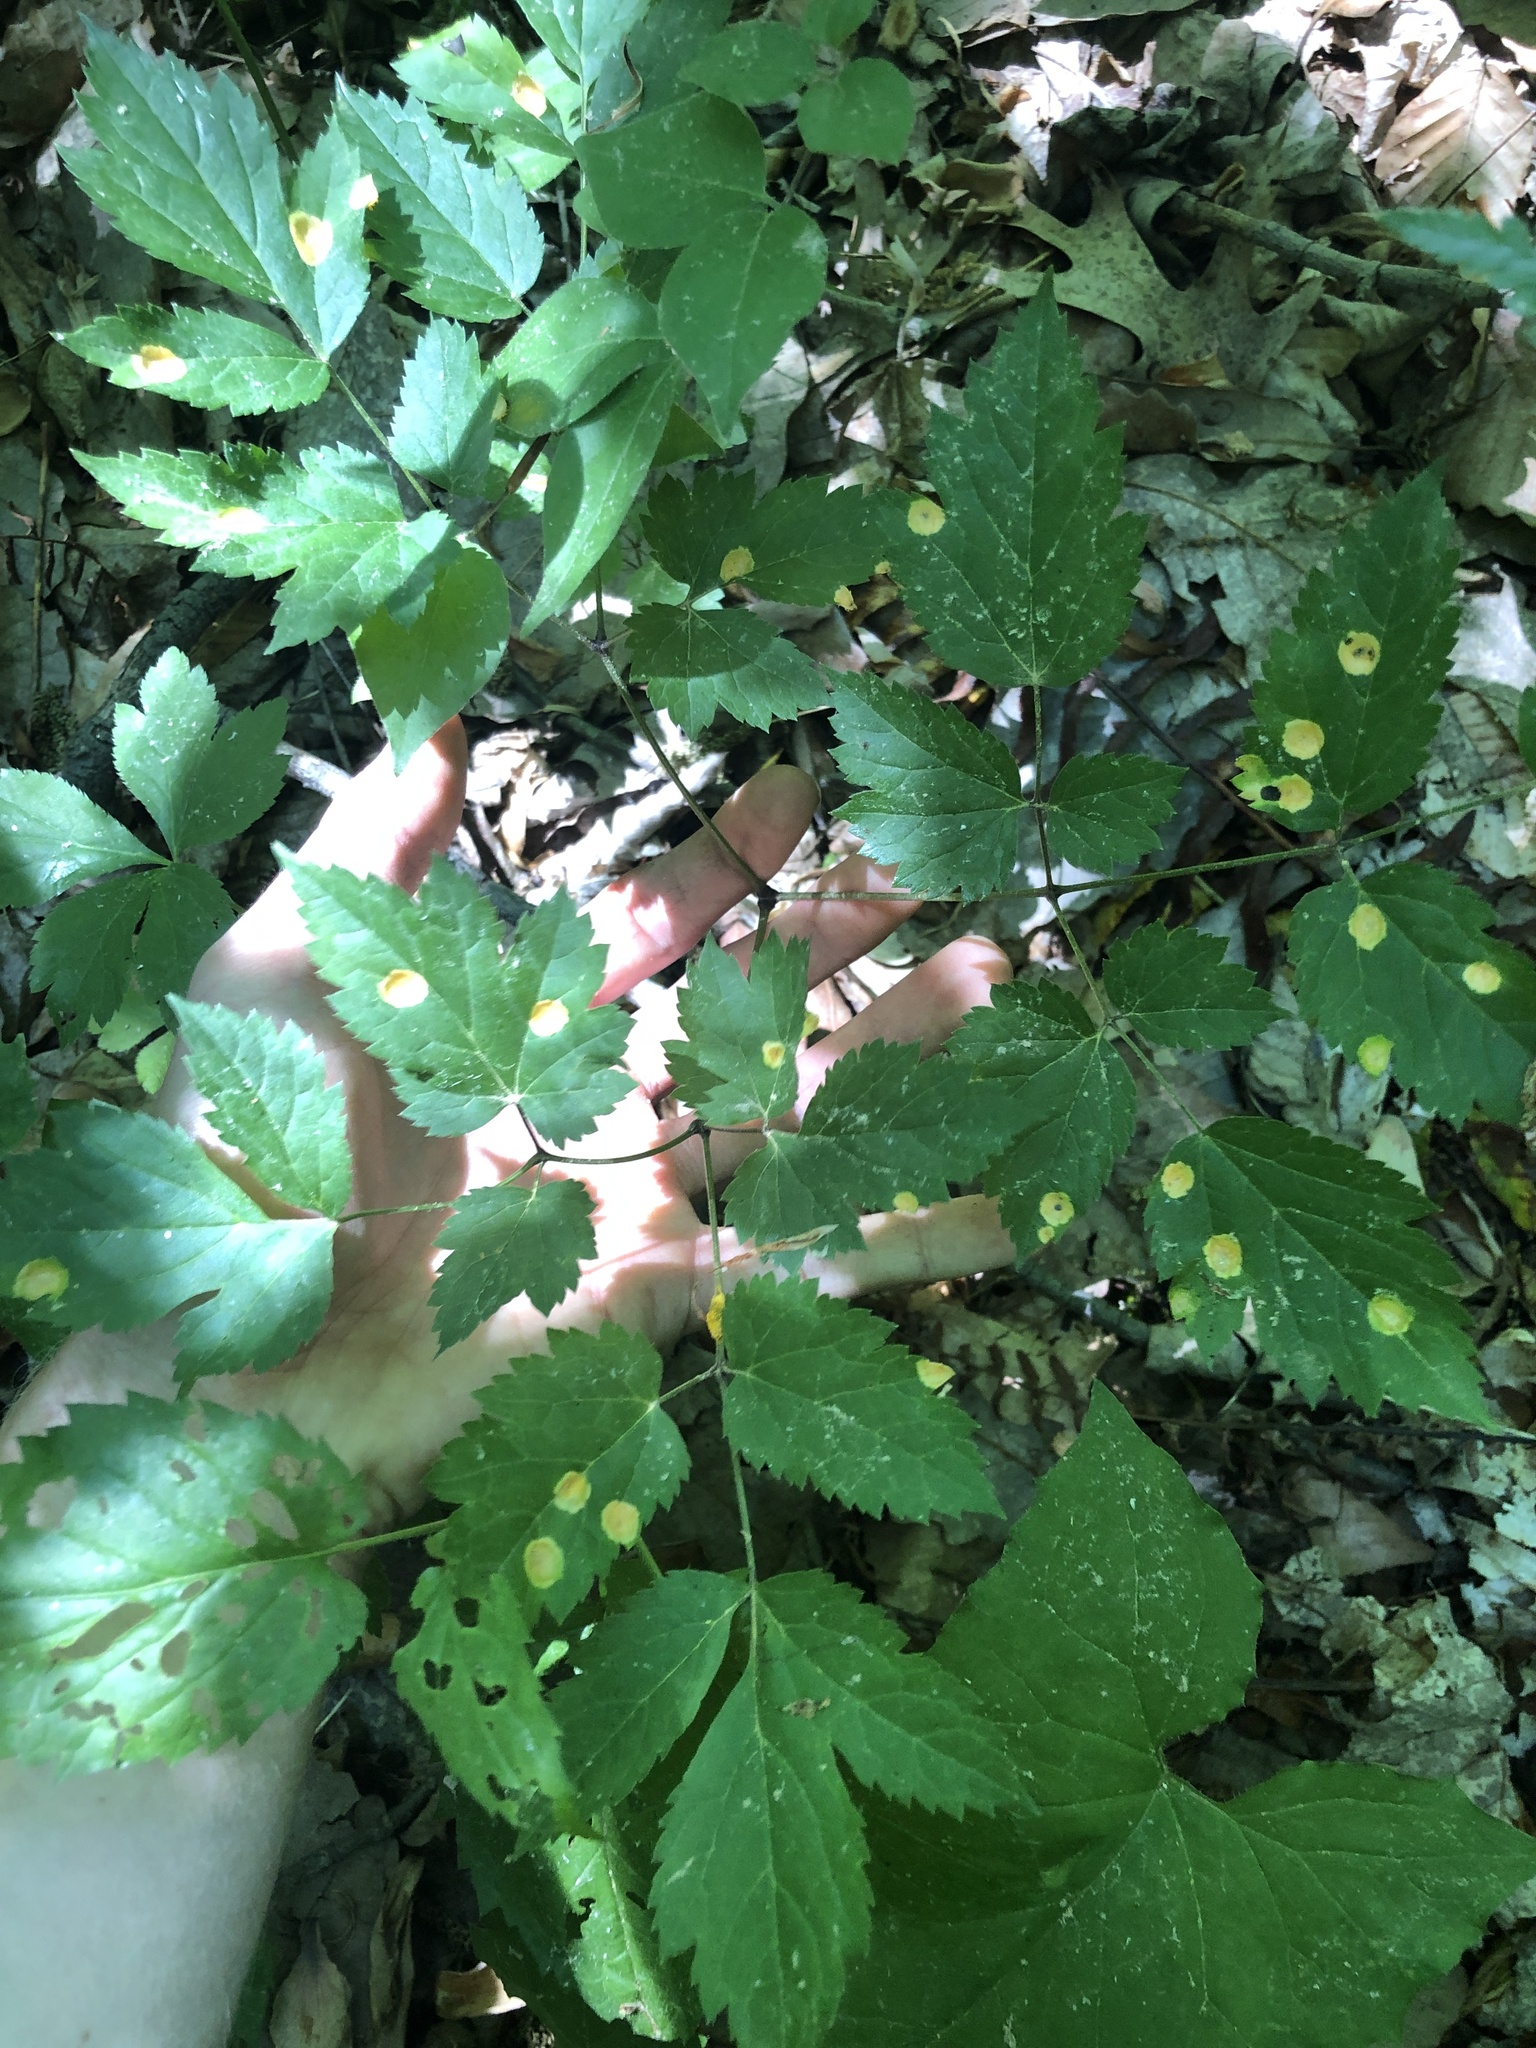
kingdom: Plantae
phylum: Tracheophyta
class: Magnoliopsida
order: Ranunculales
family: Ranunculaceae
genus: Actaea
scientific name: Actaea racemosa
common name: Black cohosh
